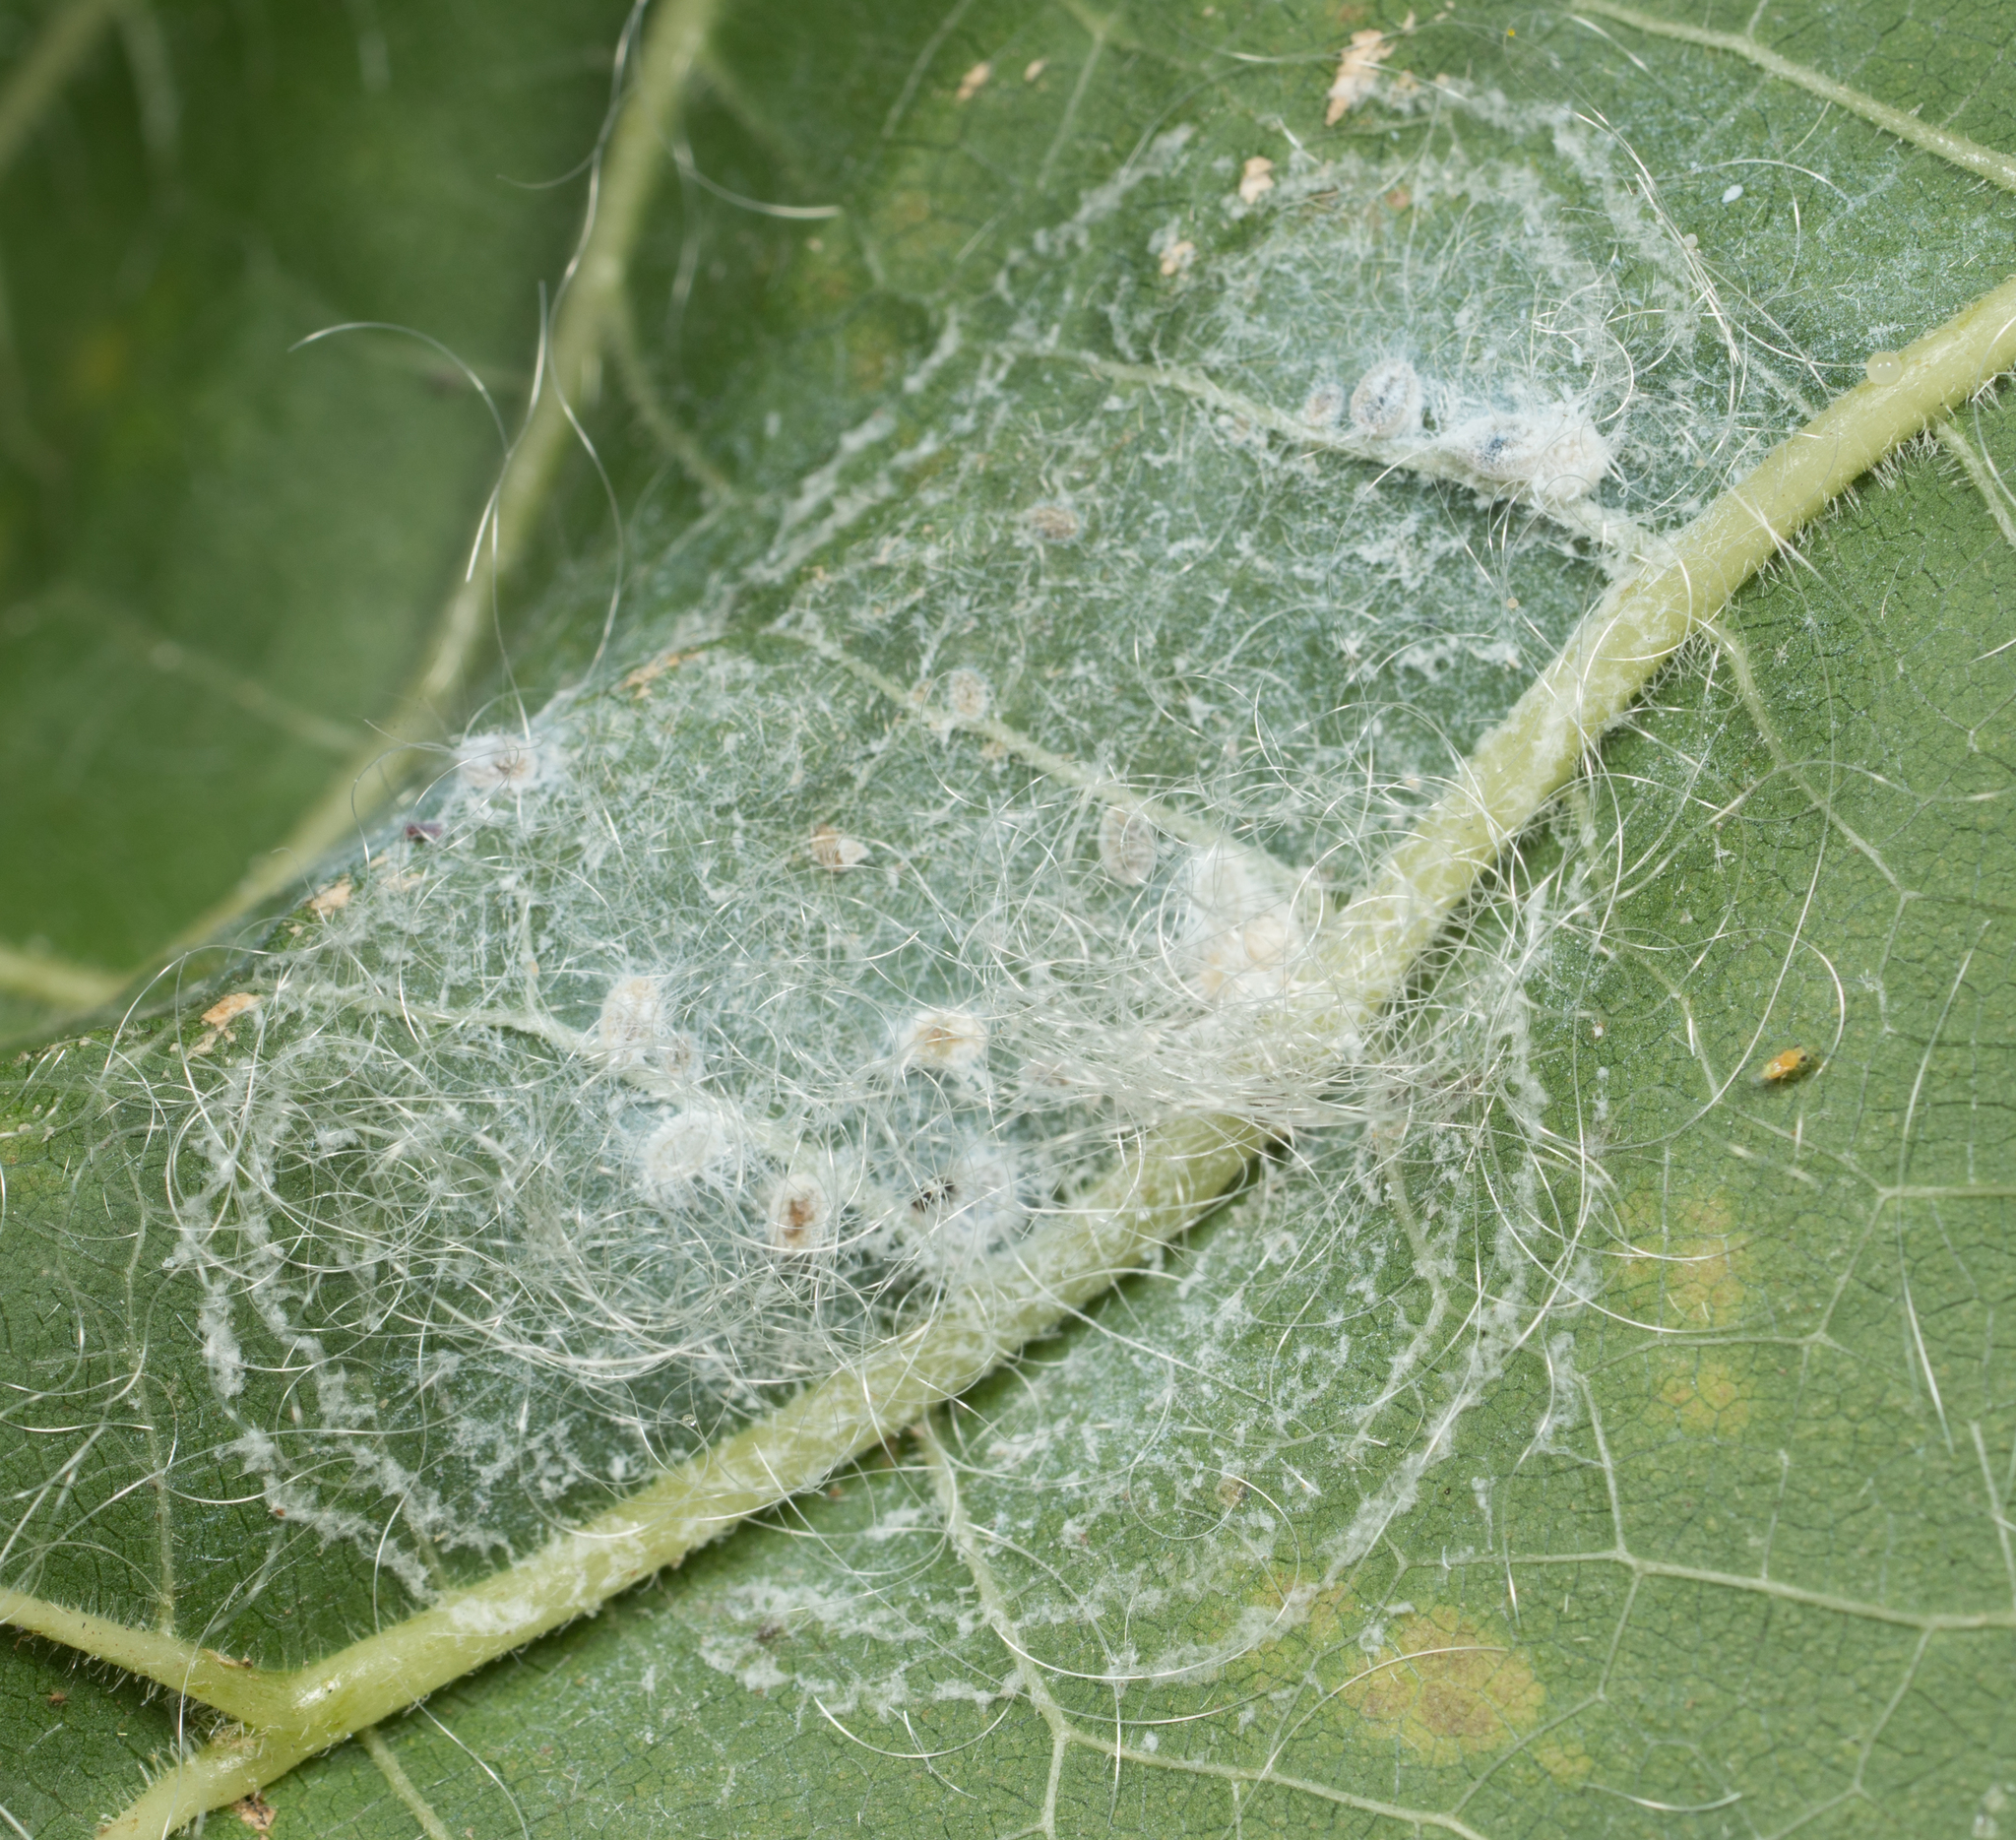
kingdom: Animalia
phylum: Arthropoda
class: Insecta
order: Hemiptera
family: Aleyrodidae
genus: Aleurodicus
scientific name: Aleurodicus dugesii
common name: Giant whitefly
